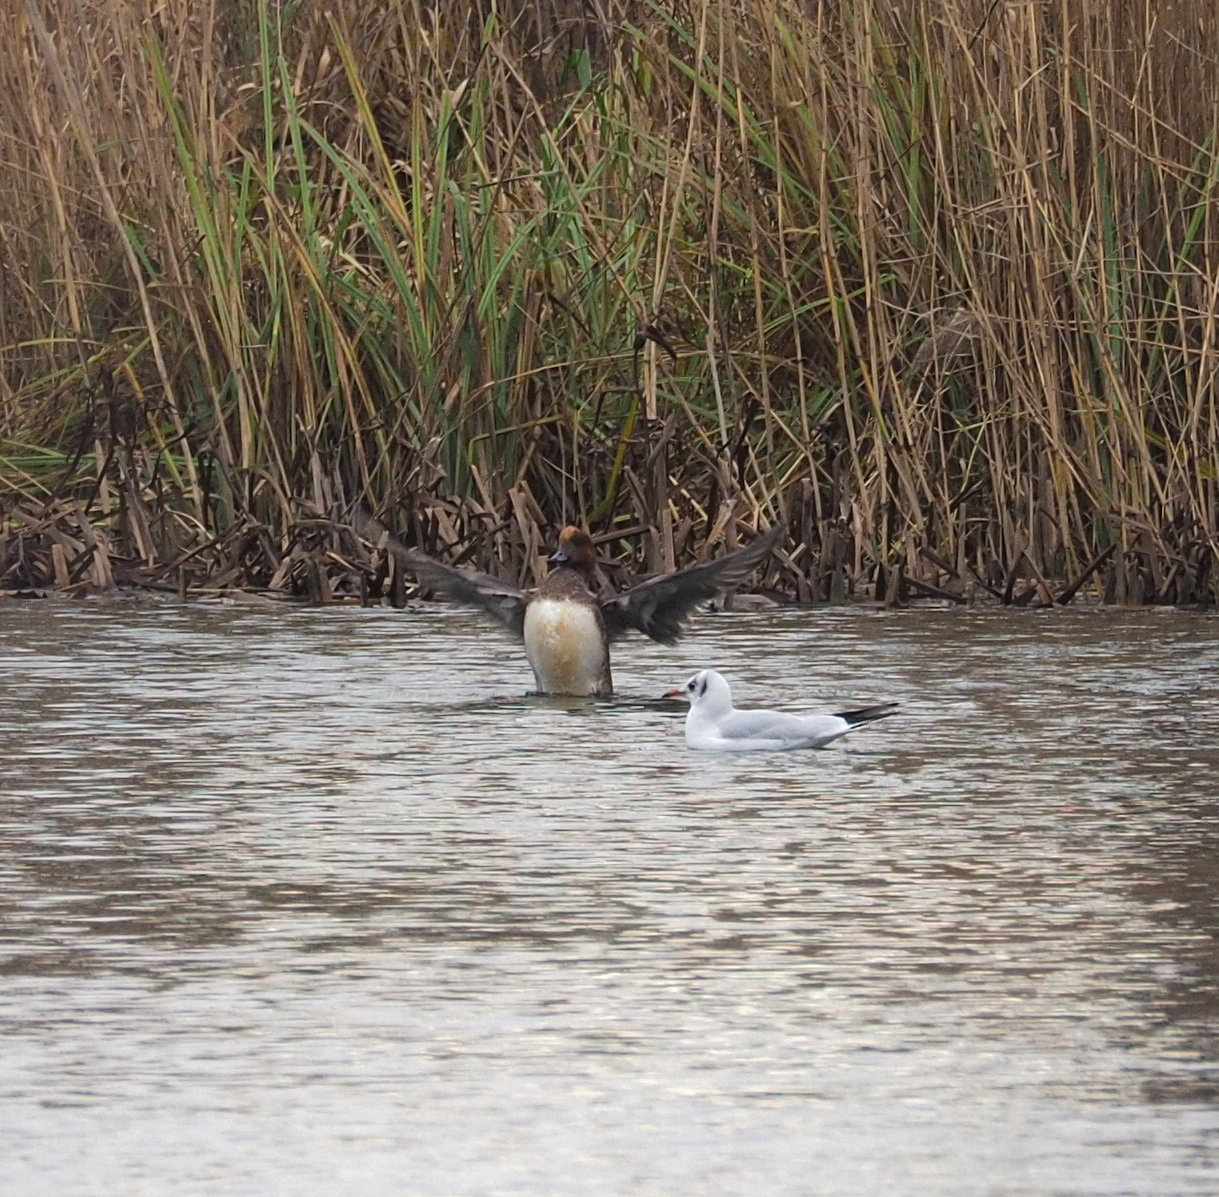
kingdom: Animalia
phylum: Chordata
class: Aves
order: Anseriformes
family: Anatidae
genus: Mareca
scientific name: Mareca penelope
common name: Eurasian wigeon
